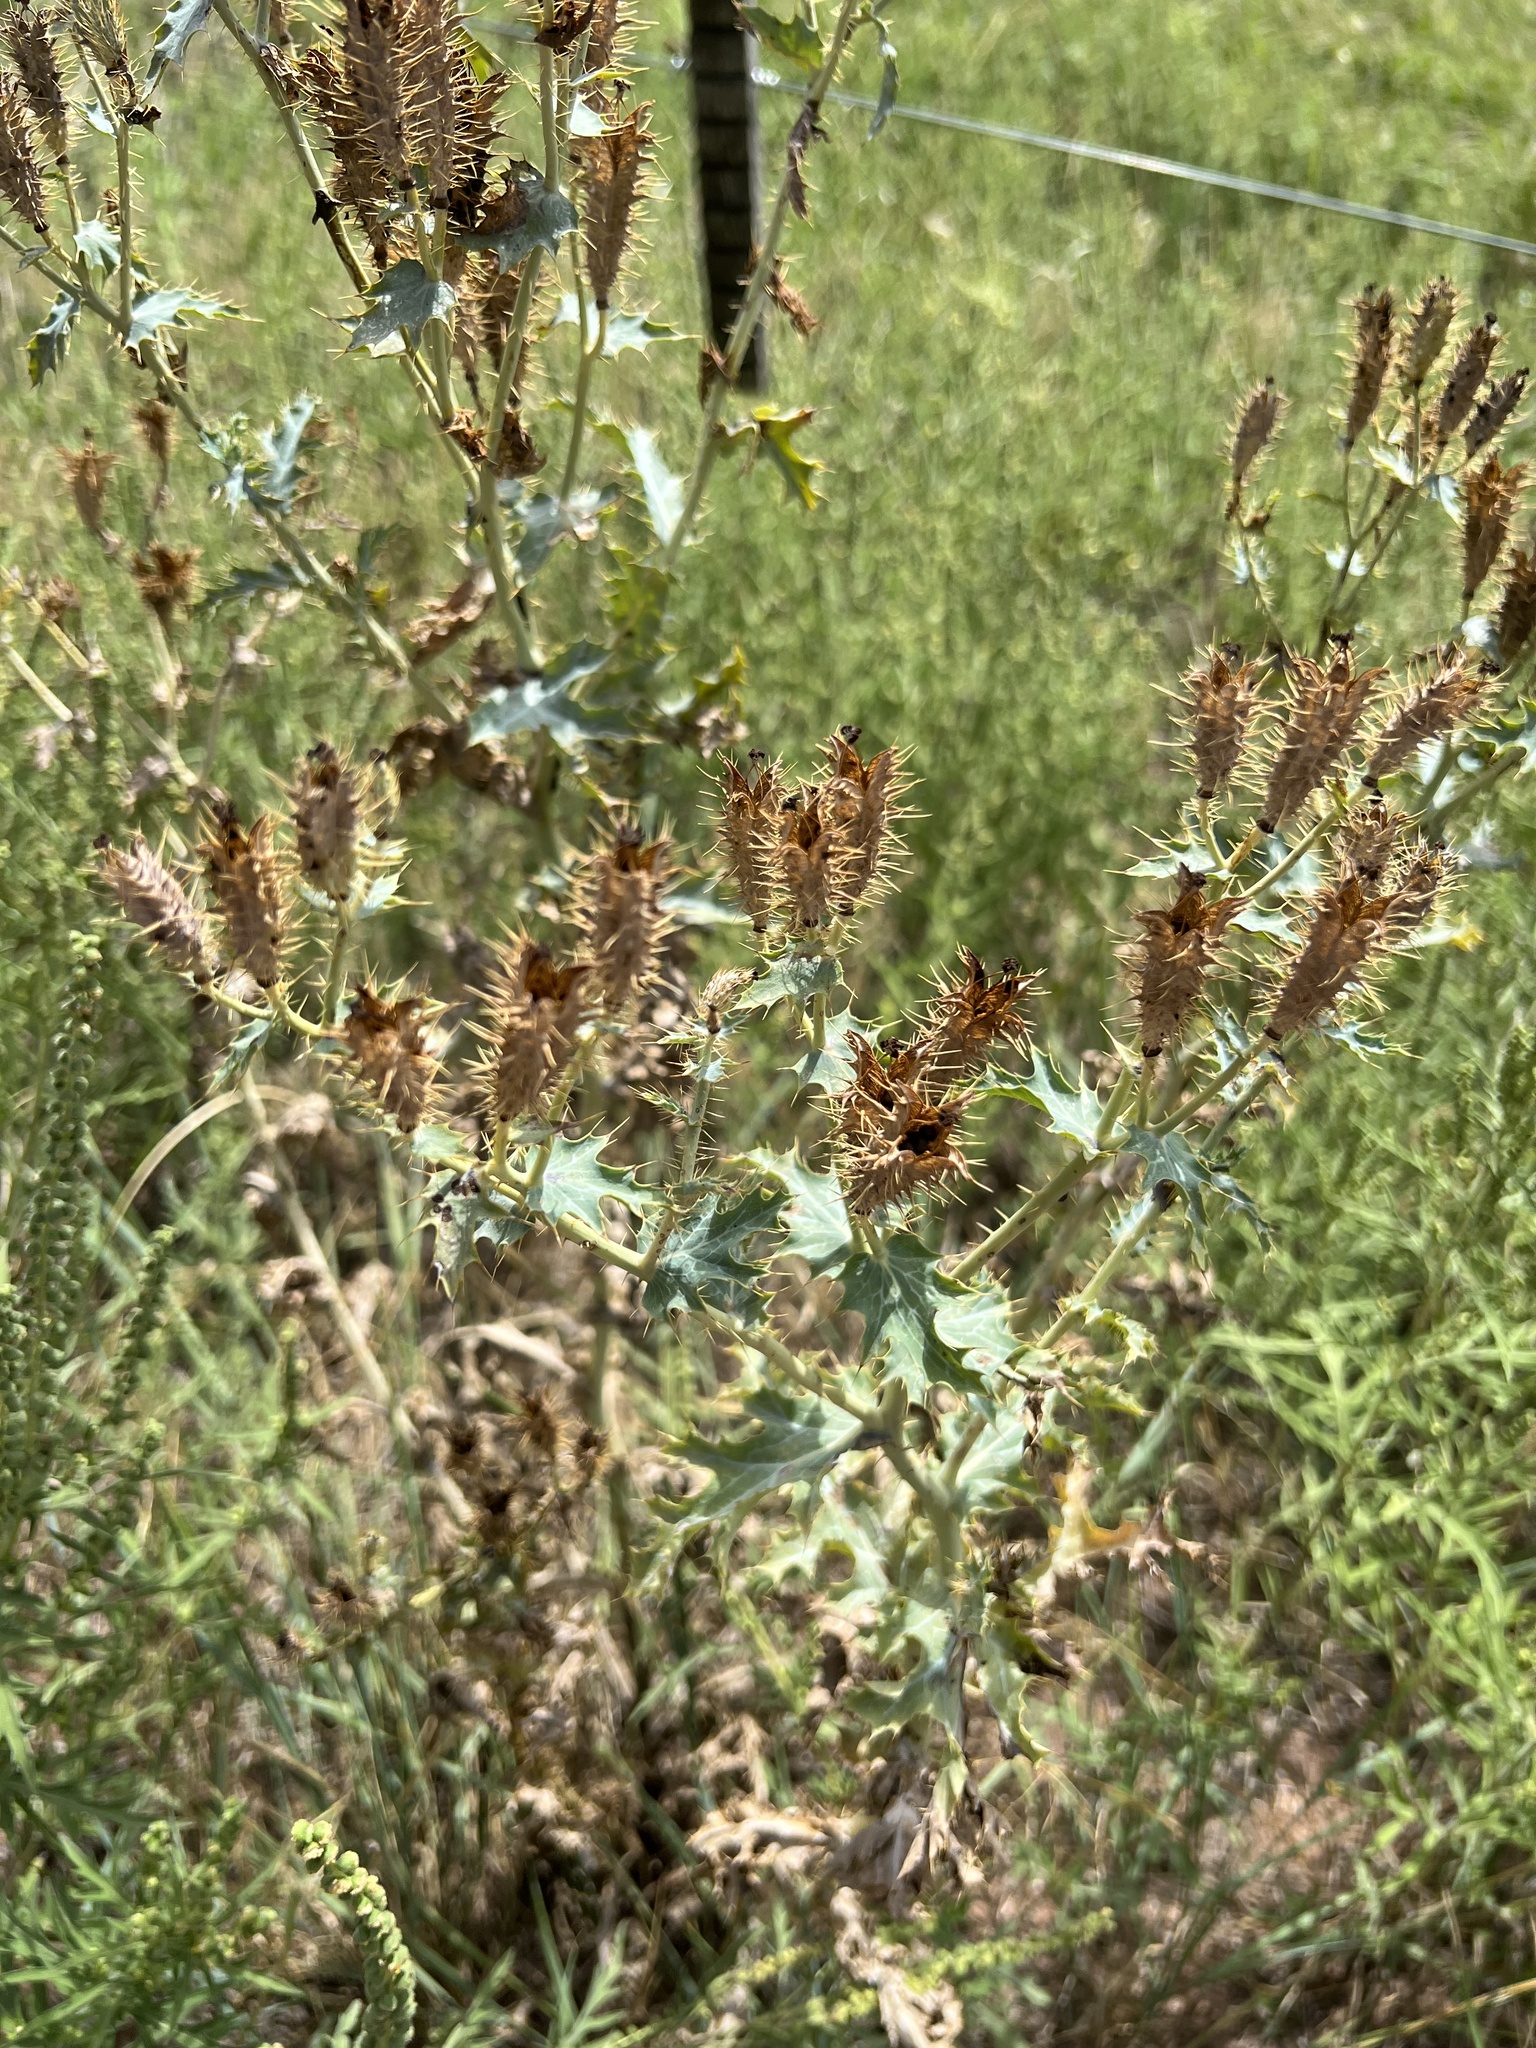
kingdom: Plantae
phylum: Tracheophyta
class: Magnoliopsida
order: Ranunculales
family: Papaveraceae
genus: Argemone
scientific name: Argemone polyanthemos
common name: Plains prickly-poppy
